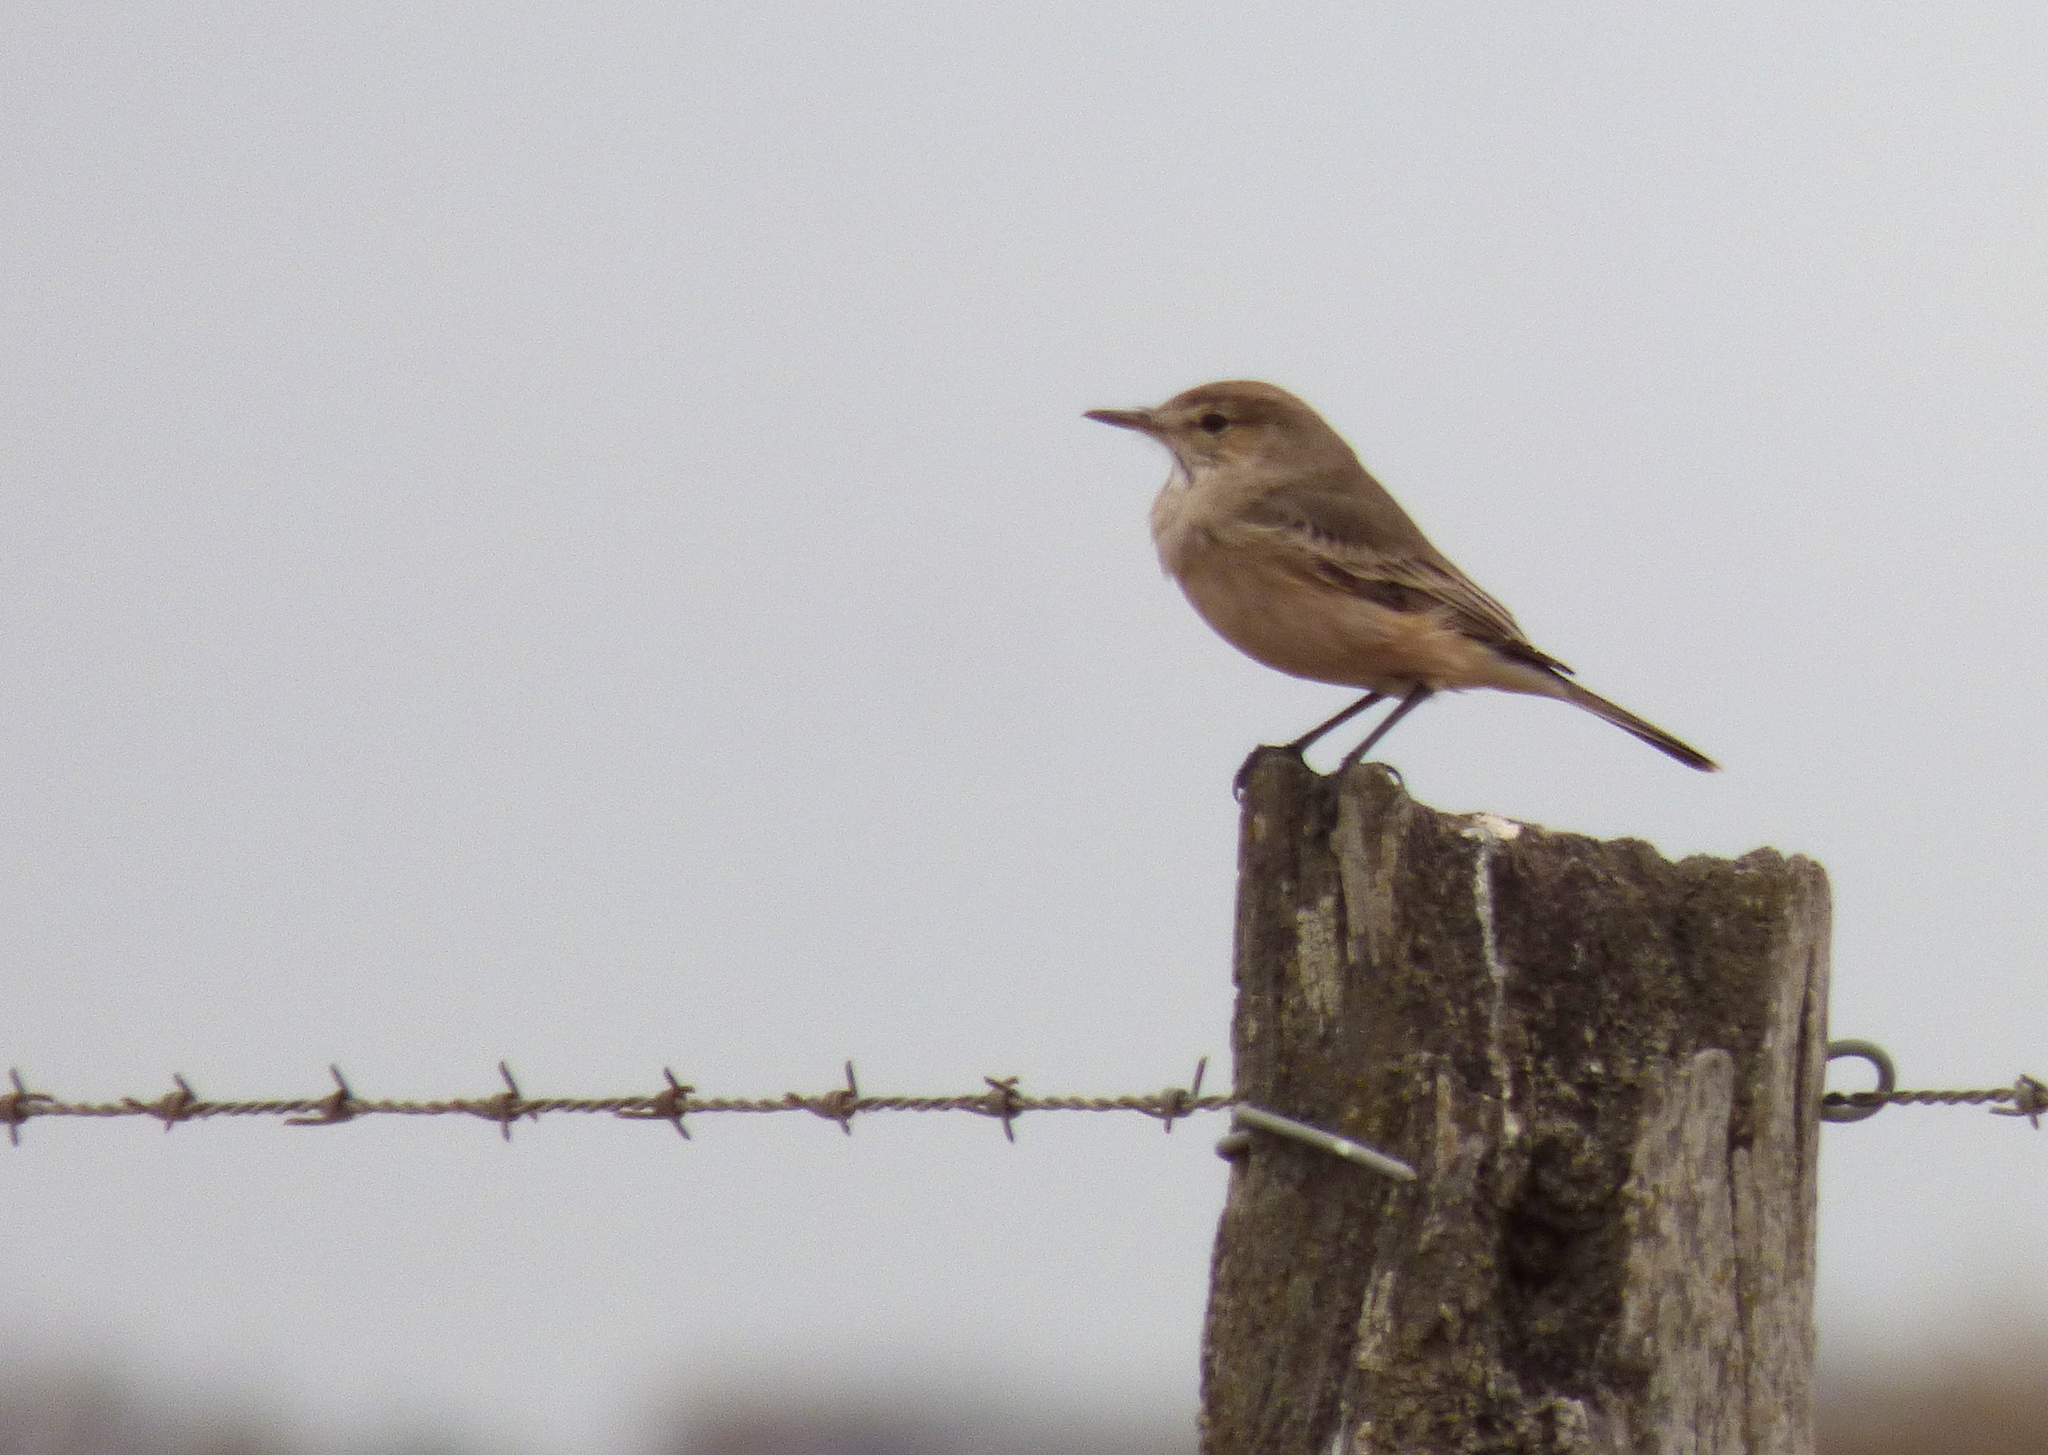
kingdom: Animalia
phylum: Chordata
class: Aves
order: Passeriformes
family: Tyrannidae
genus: Agriornis
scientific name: Agriornis murinus
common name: Lesser shrike-tyrant
